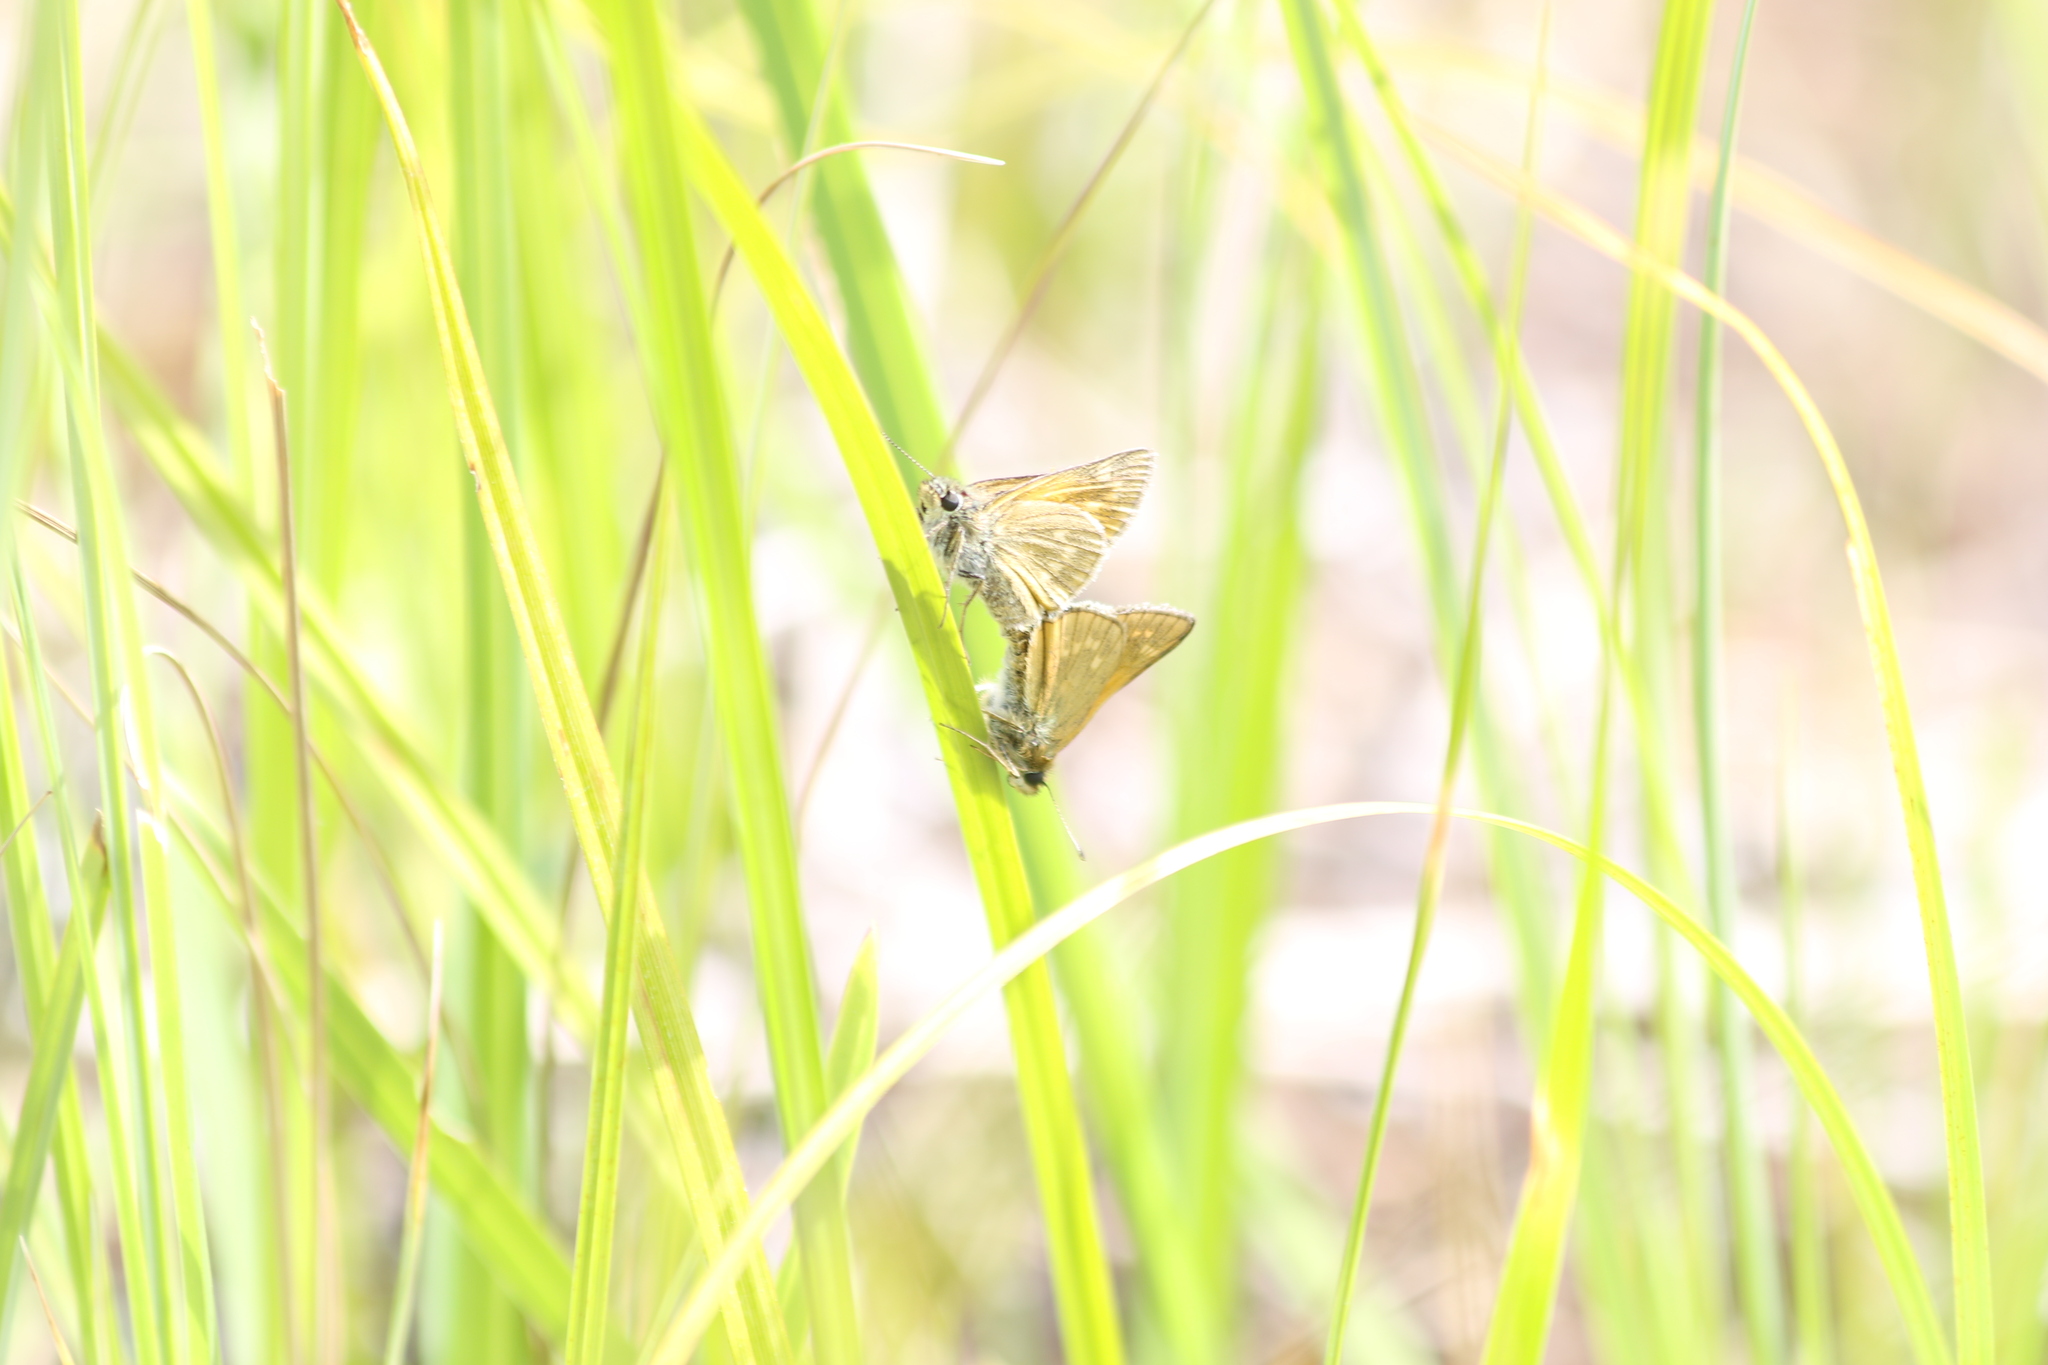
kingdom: Animalia
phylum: Arthropoda
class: Insecta
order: Lepidoptera
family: Hesperiidae
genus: Ochlodes
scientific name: Ochlodes venata
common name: Large skipper
